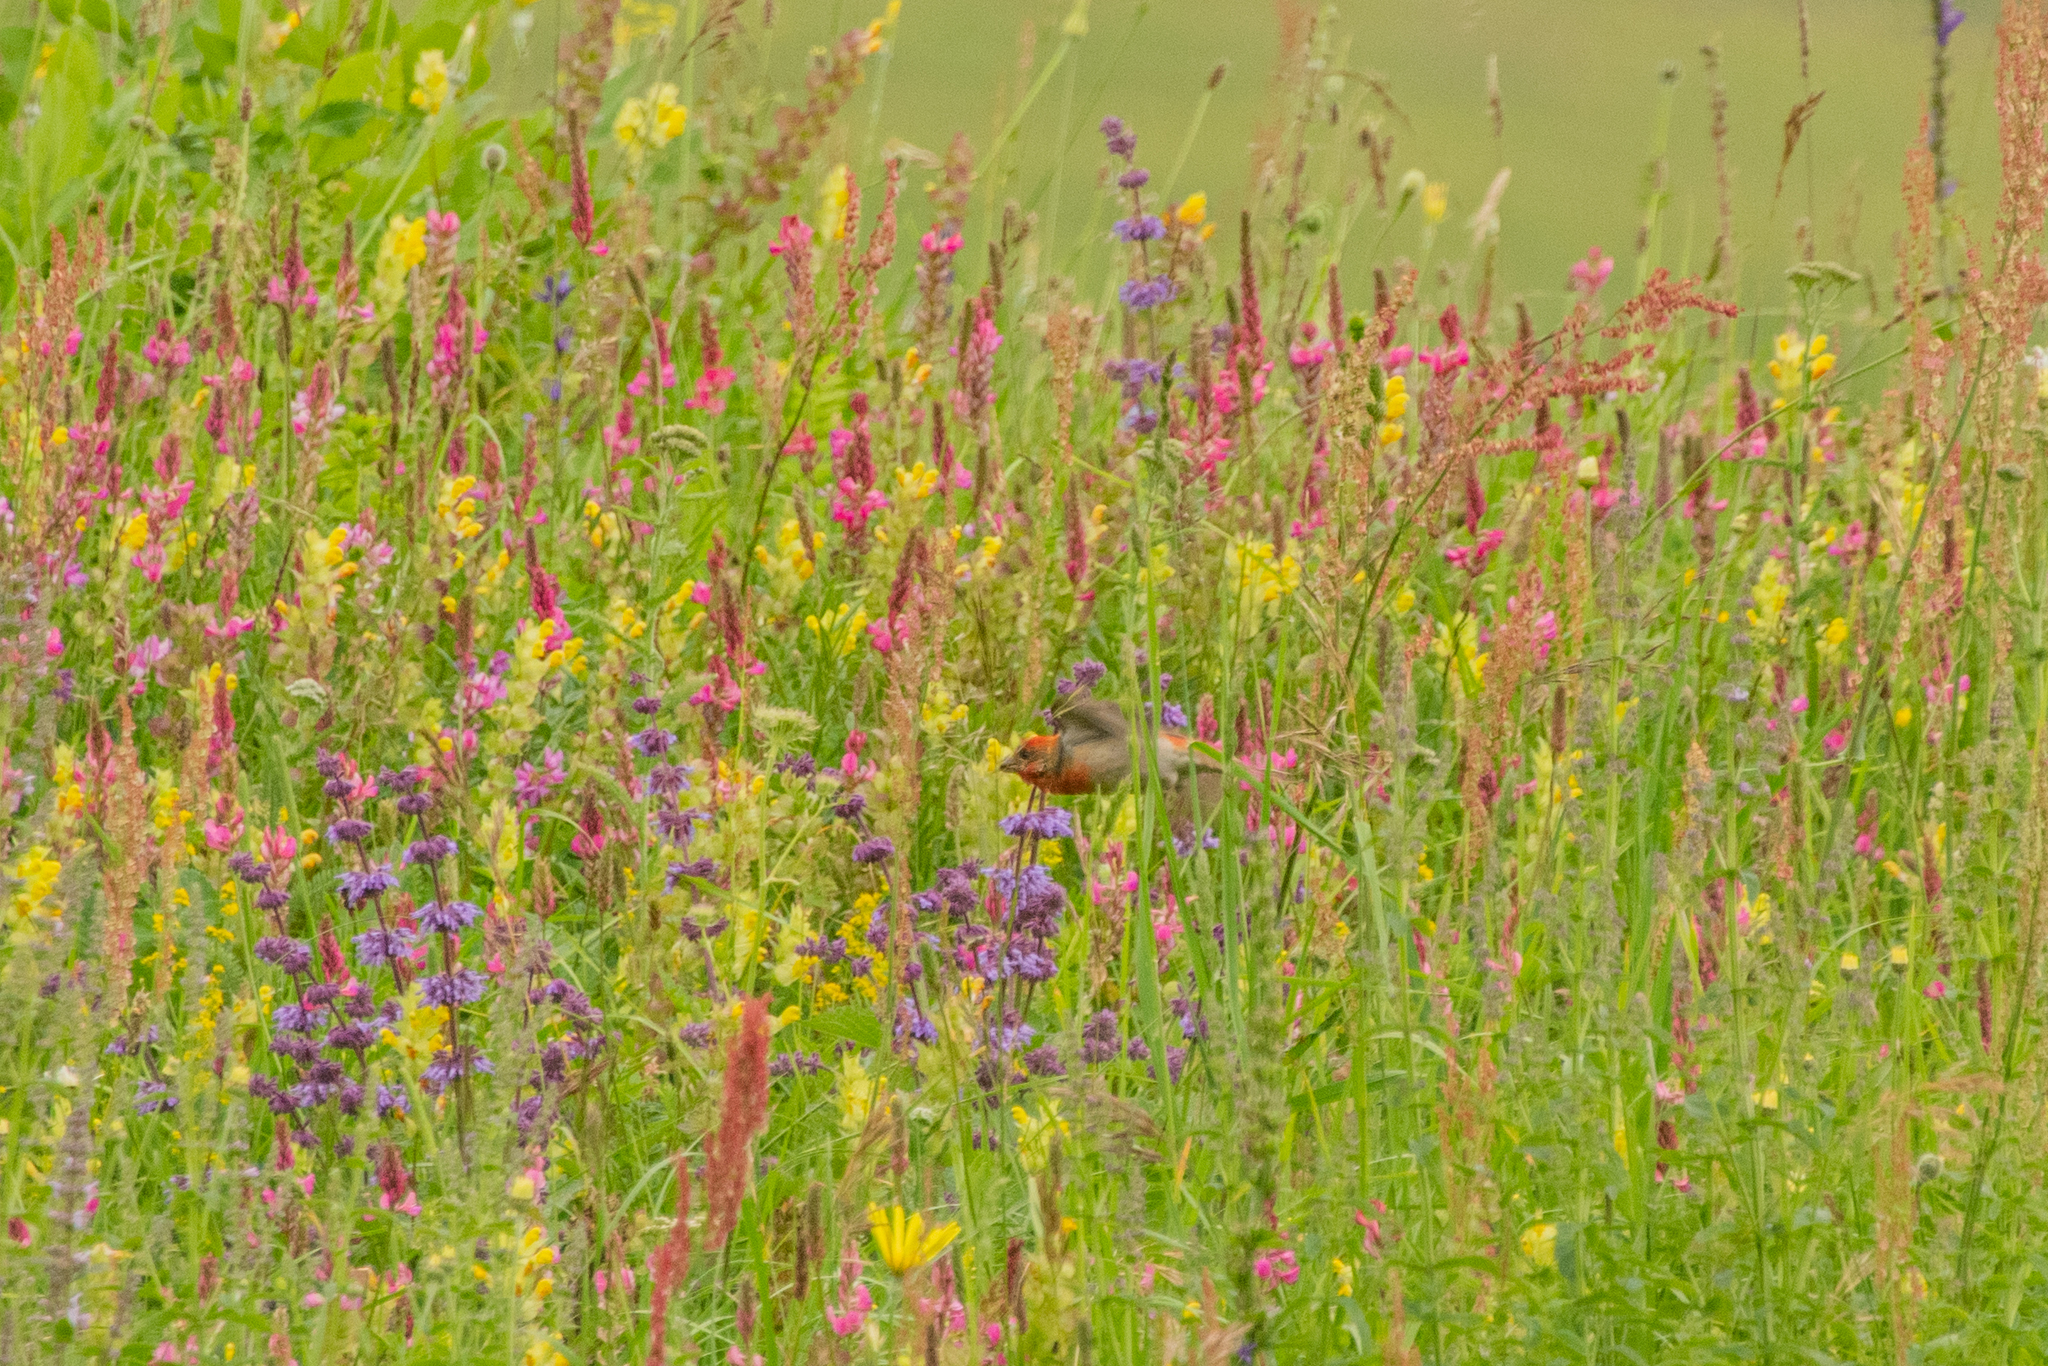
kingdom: Animalia
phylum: Chordata
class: Aves
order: Passeriformes
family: Fringillidae
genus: Carpodacus
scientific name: Carpodacus erythrinus
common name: Common rosefinch
